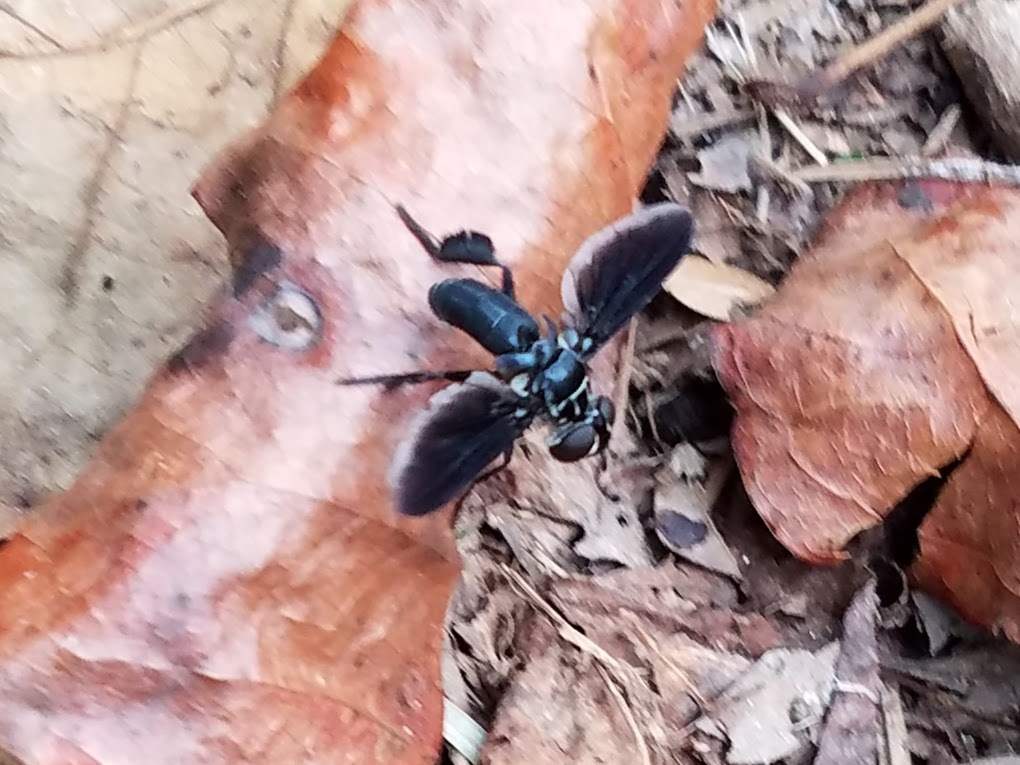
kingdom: Animalia
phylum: Arthropoda
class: Insecta
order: Diptera
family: Tachinidae
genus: Trichopoda
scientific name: Trichopoda lanipes
